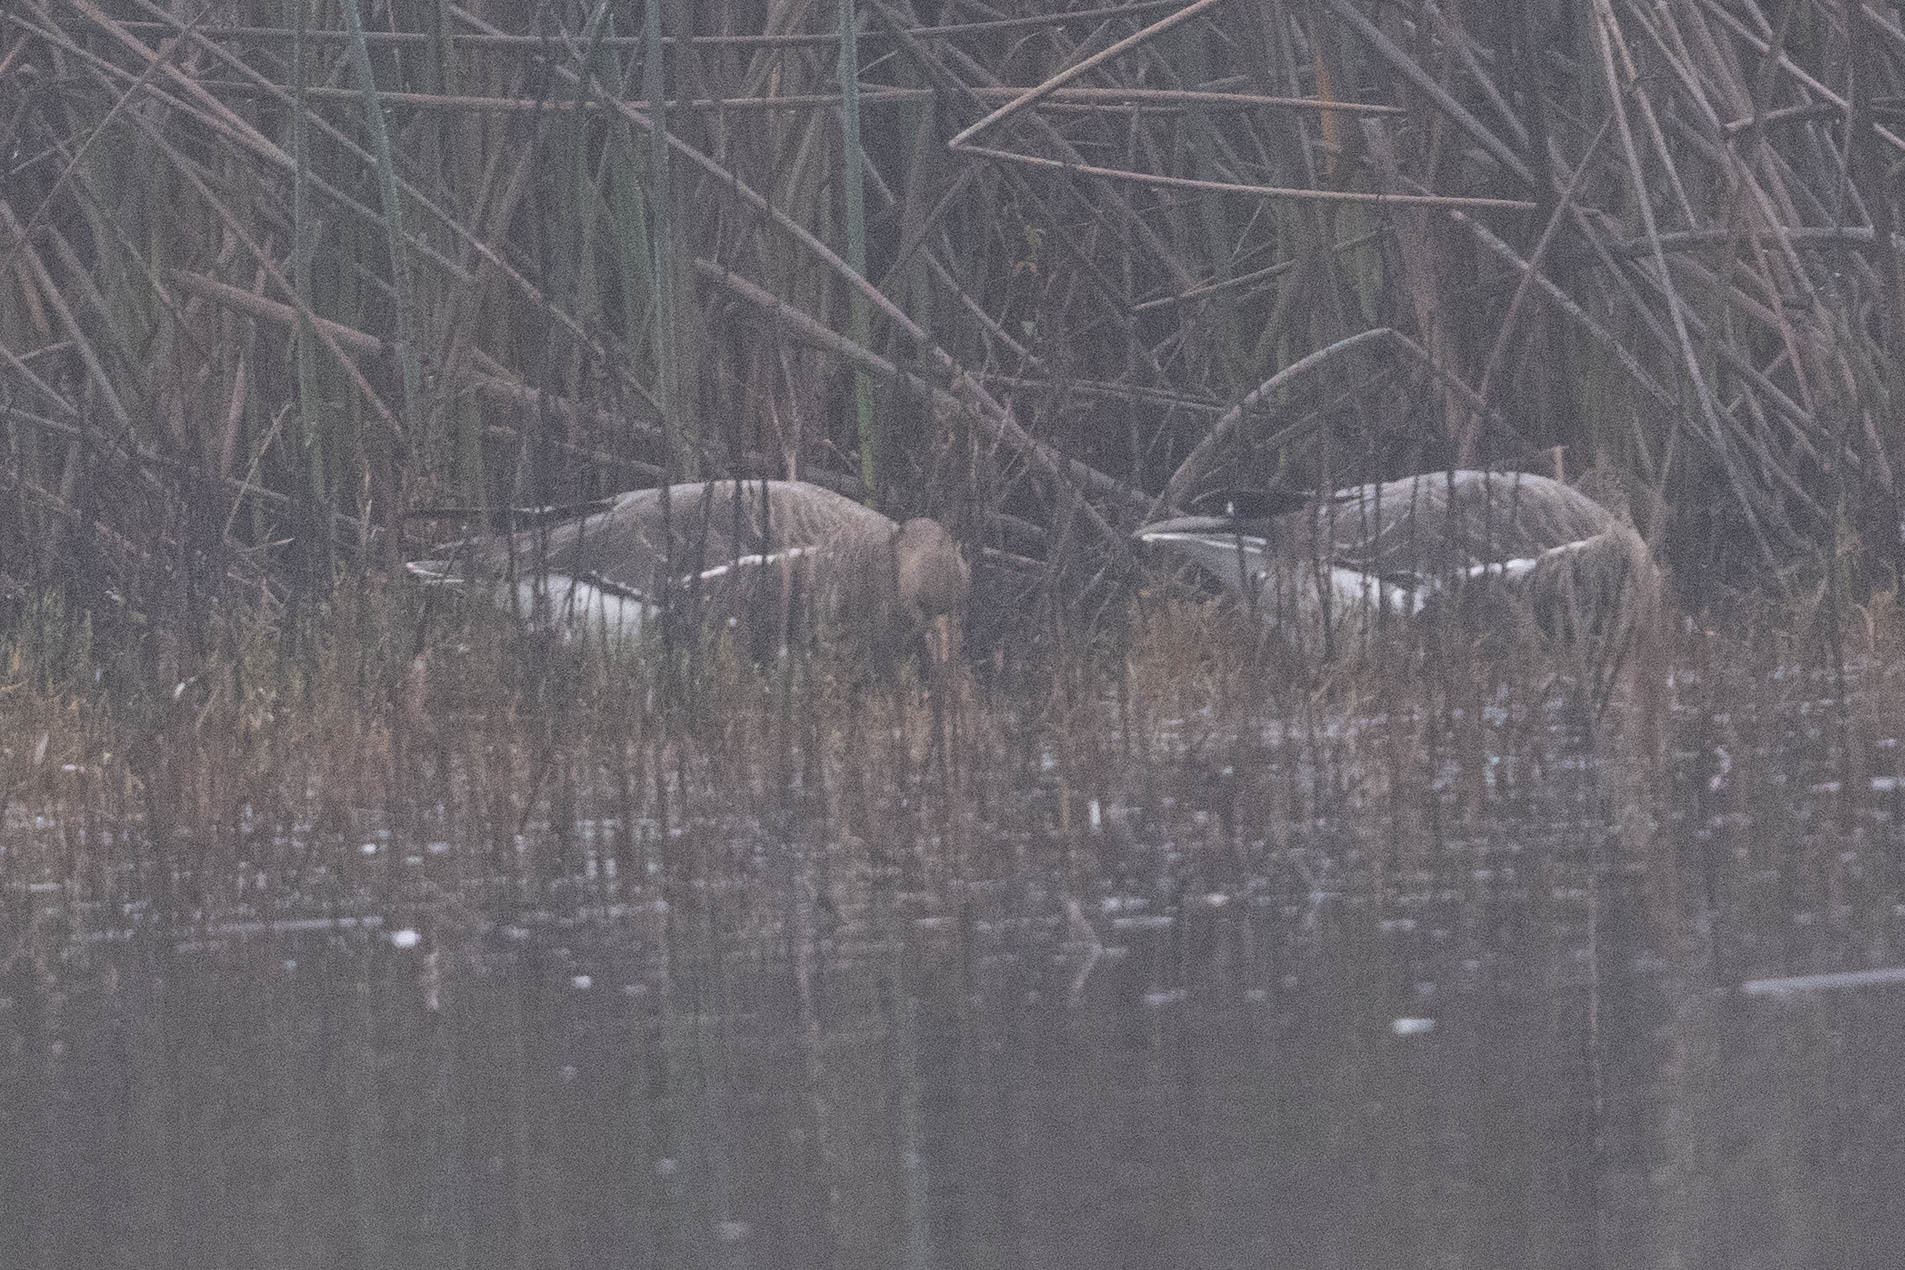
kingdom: Animalia
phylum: Chordata
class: Aves
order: Anseriformes
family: Anatidae
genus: Anser
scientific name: Anser albifrons
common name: Greater white-fronted goose
